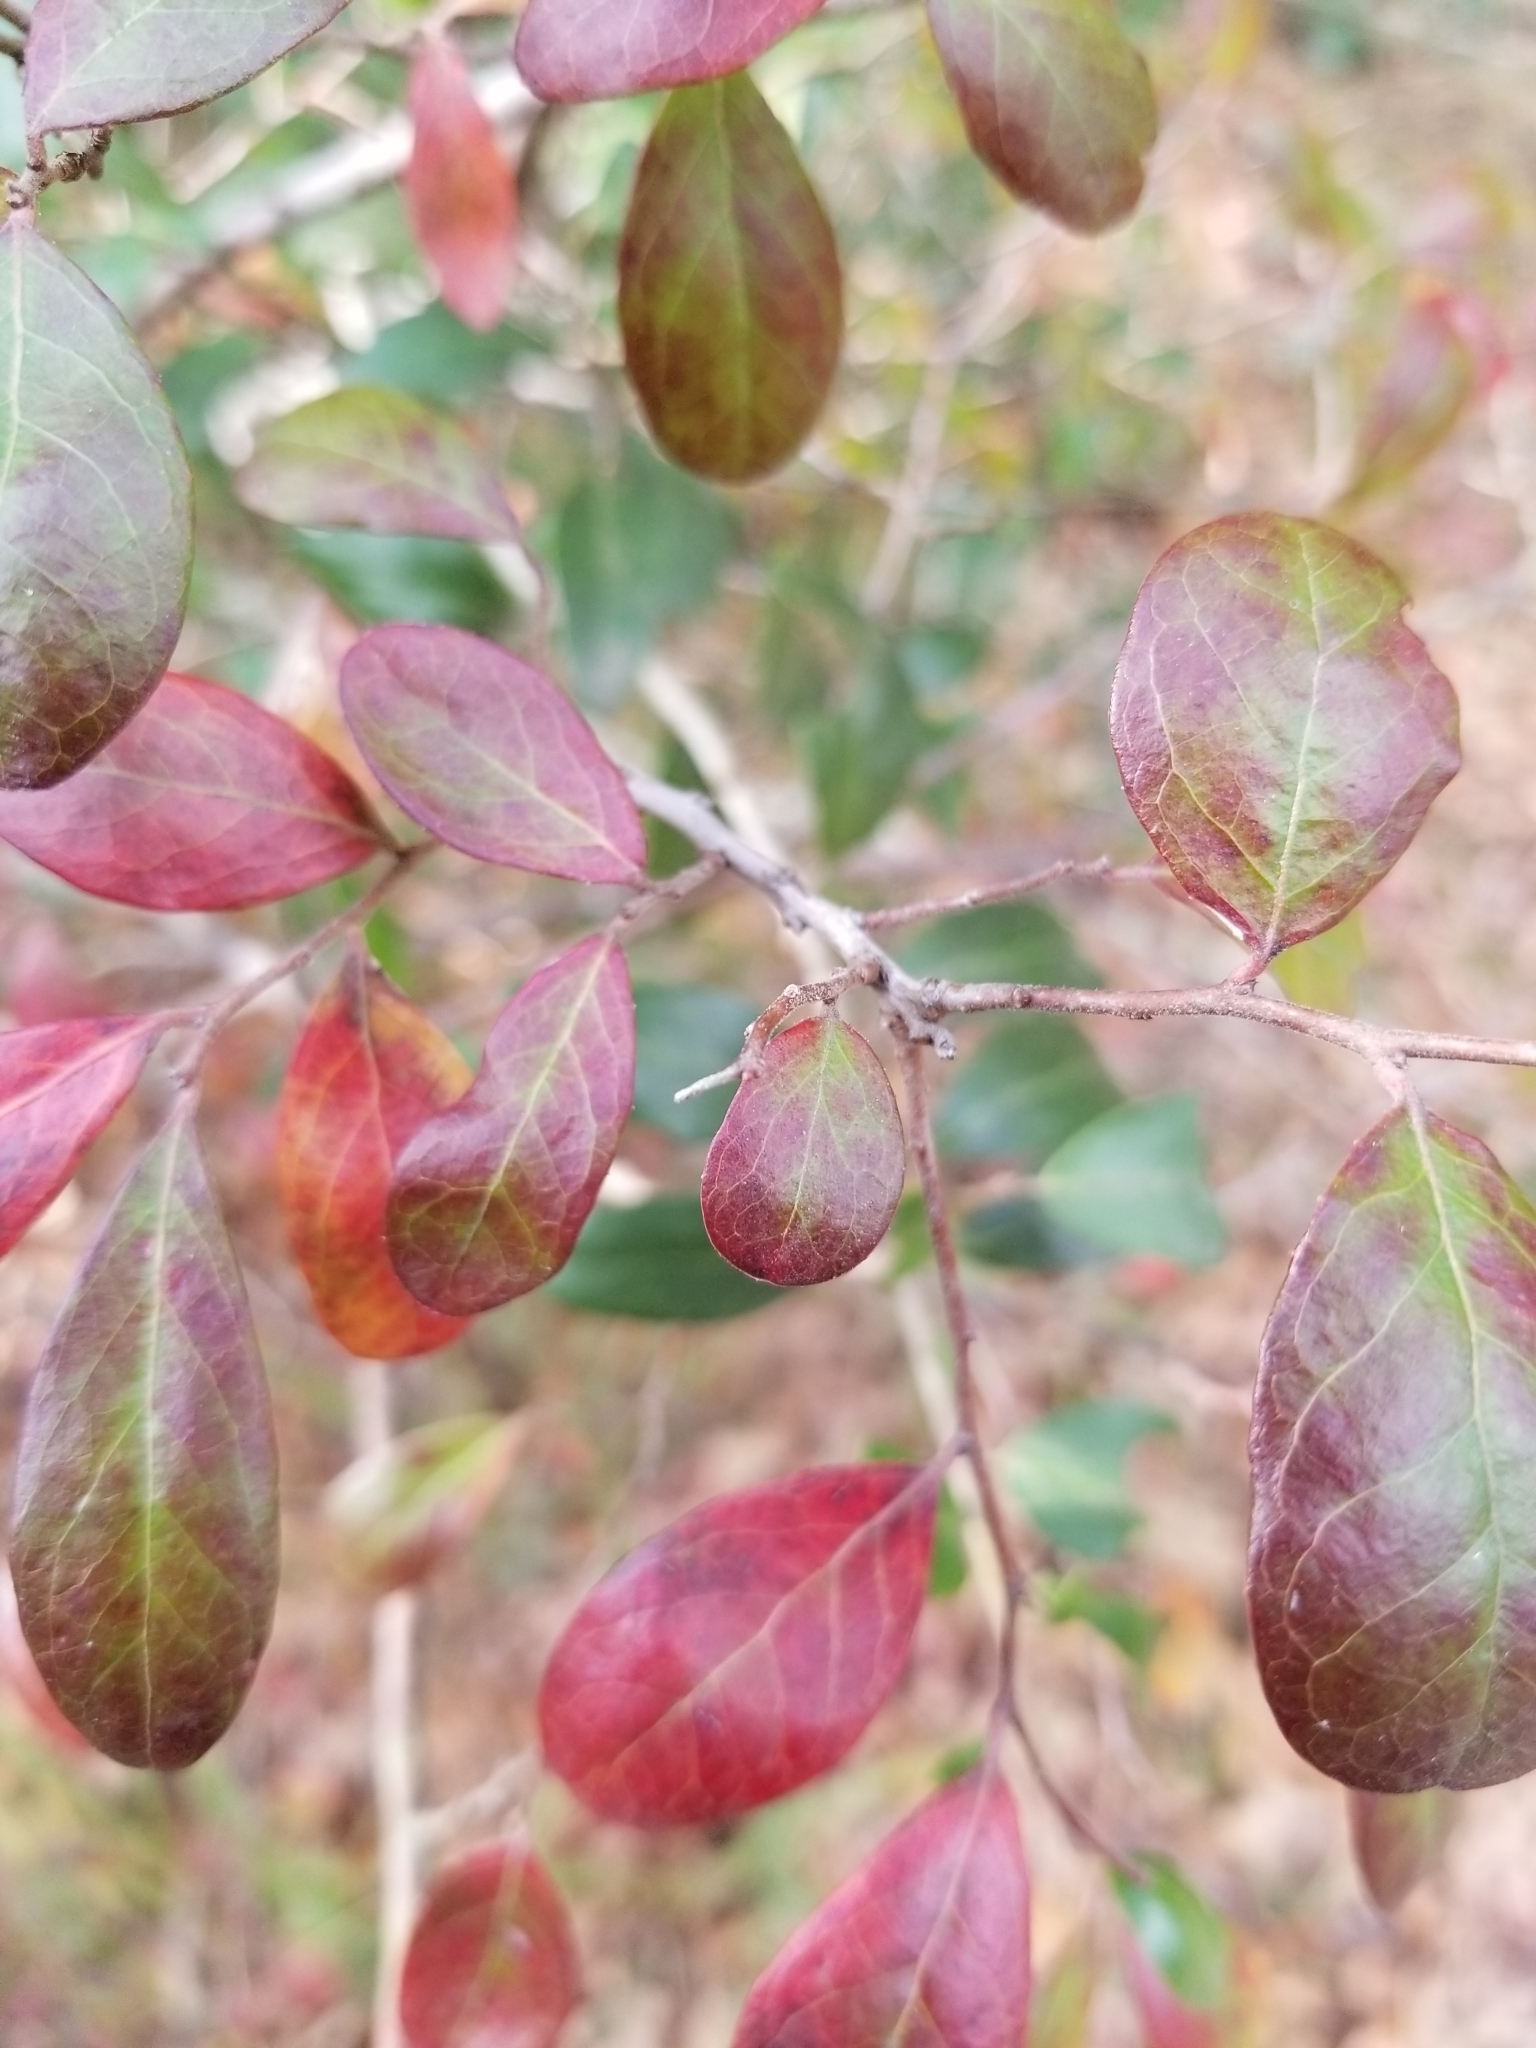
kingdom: Plantae
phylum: Tracheophyta
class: Magnoliopsida
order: Ericales
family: Ericaceae
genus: Vaccinium
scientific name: Vaccinium arboreum
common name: Farkleberry
